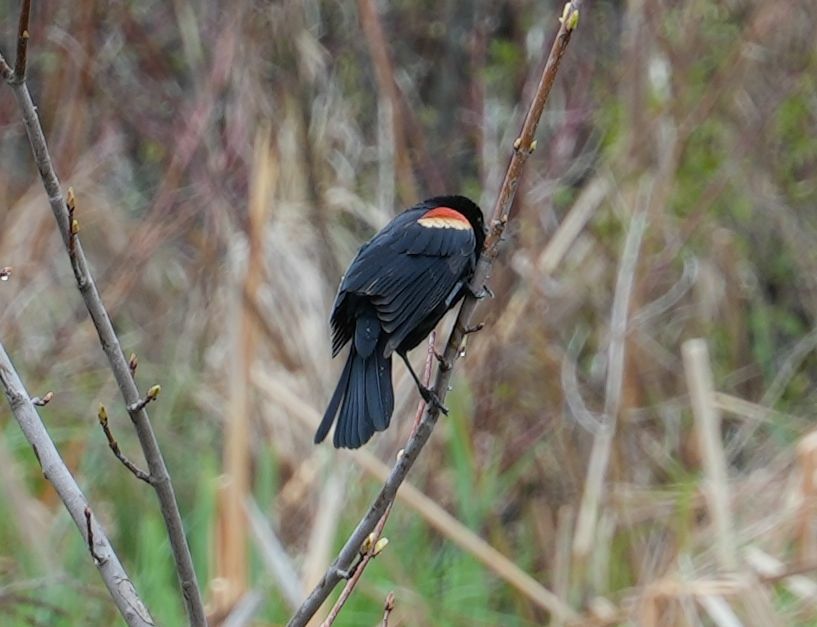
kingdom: Animalia
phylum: Chordata
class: Aves
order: Passeriformes
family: Icteridae
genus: Agelaius
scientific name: Agelaius phoeniceus
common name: Red-winged blackbird
